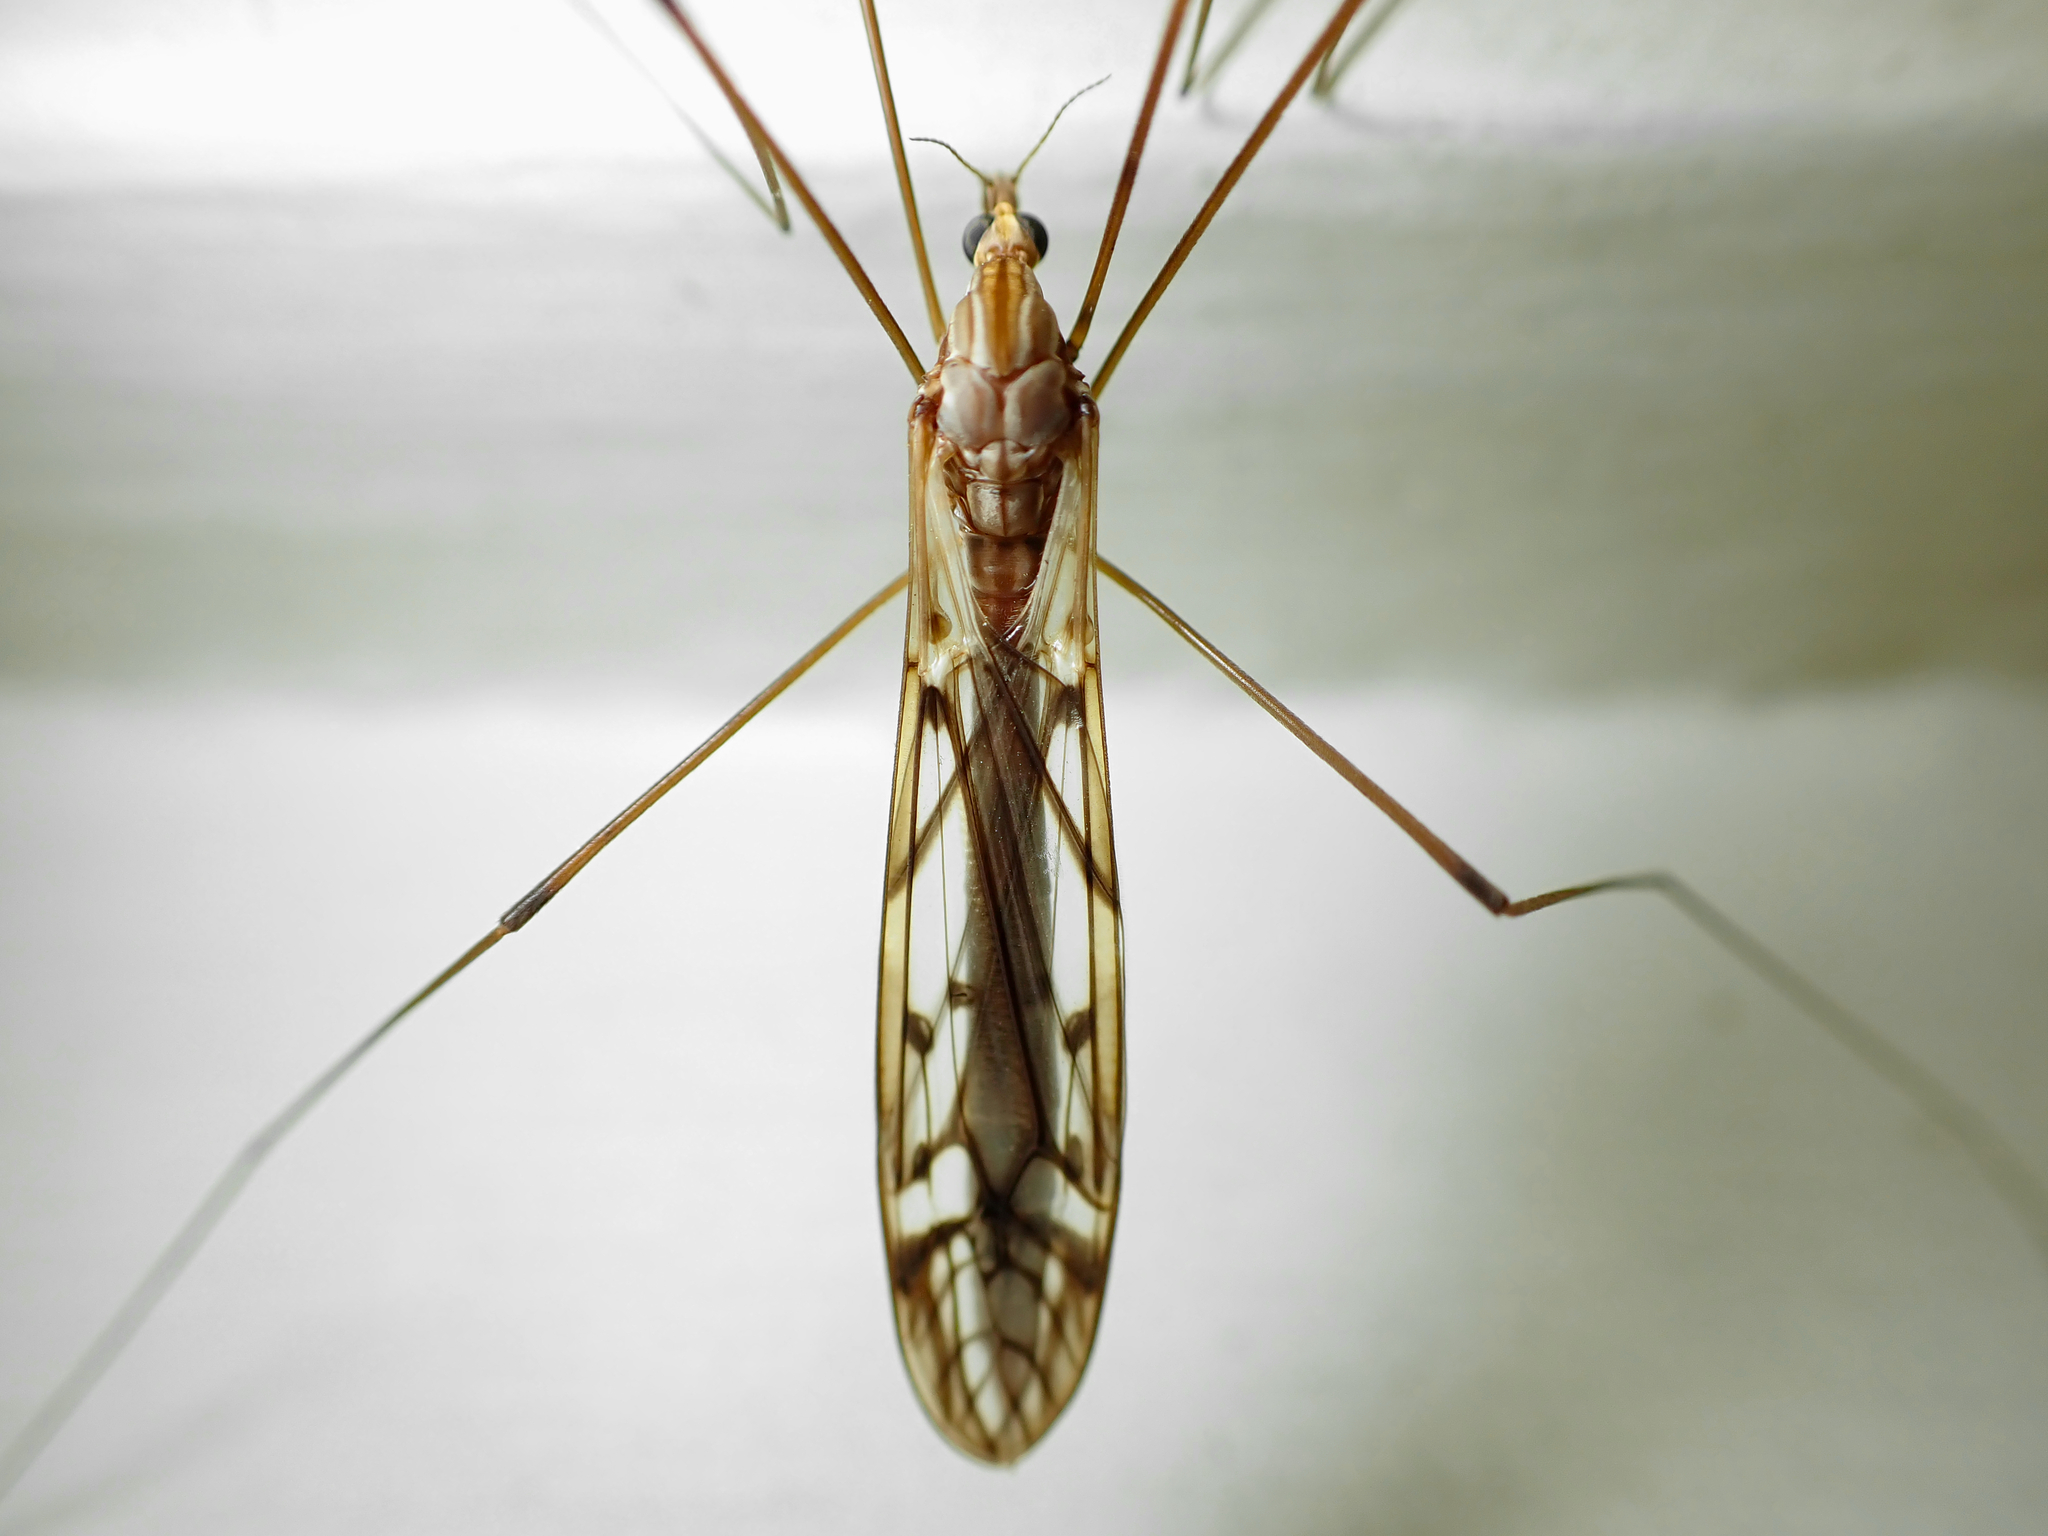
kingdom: Animalia
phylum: Arthropoda
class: Insecta
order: Diptera
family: Tipulidae
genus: Zelandotipula
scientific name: Zelandotipula novarae
